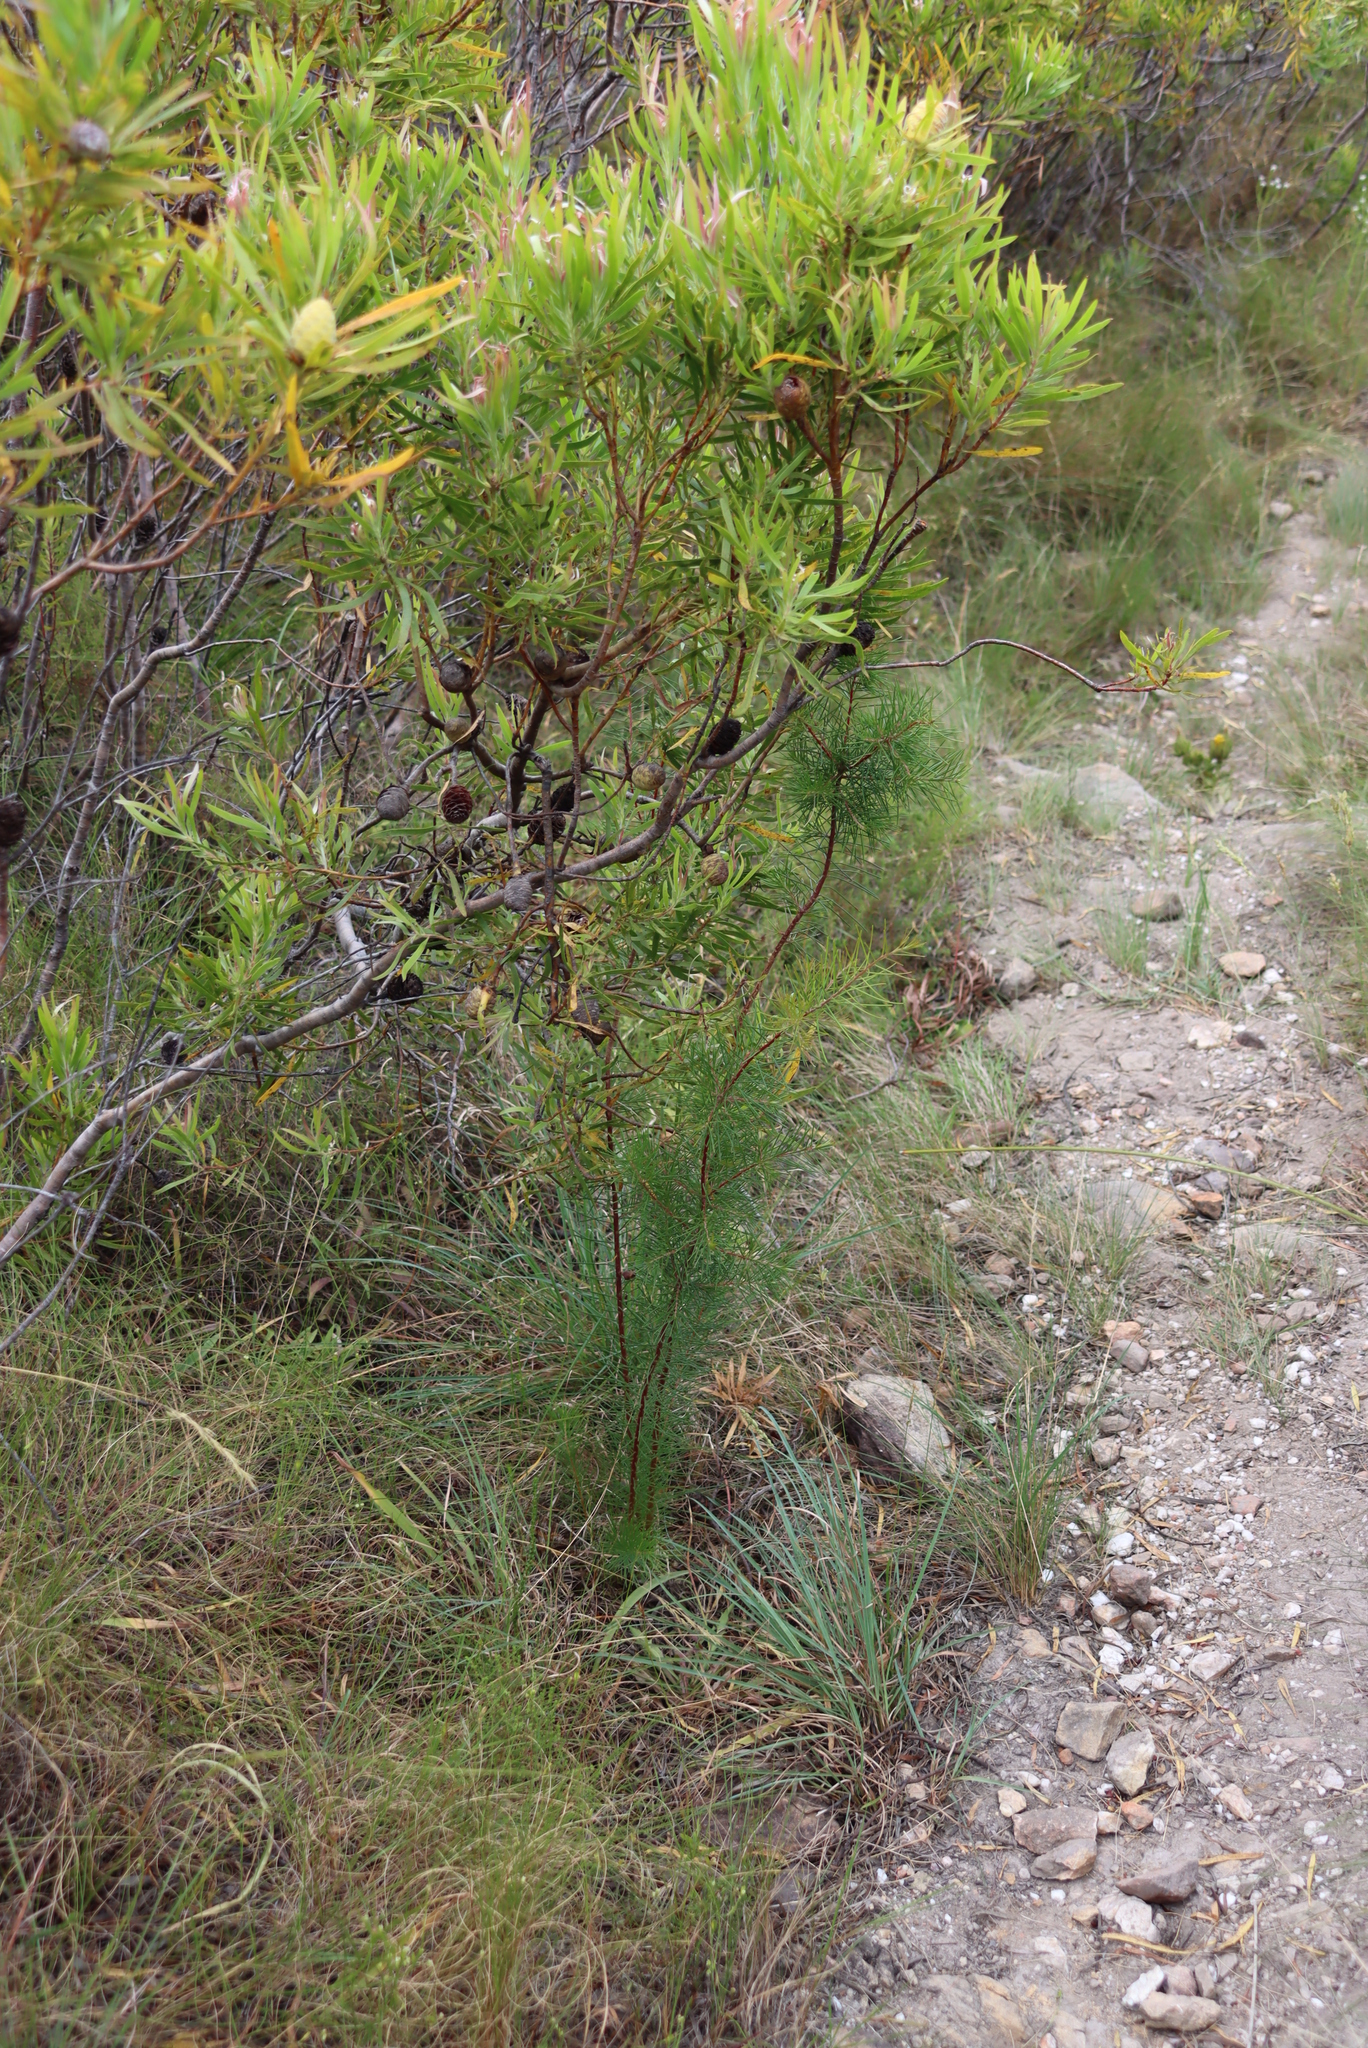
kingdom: Plantae
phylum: Tracheophyta
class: Magnoliopsida
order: Proteales
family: Proteaceae
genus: Hakea
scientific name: Hakea sericea
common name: Needle bush
